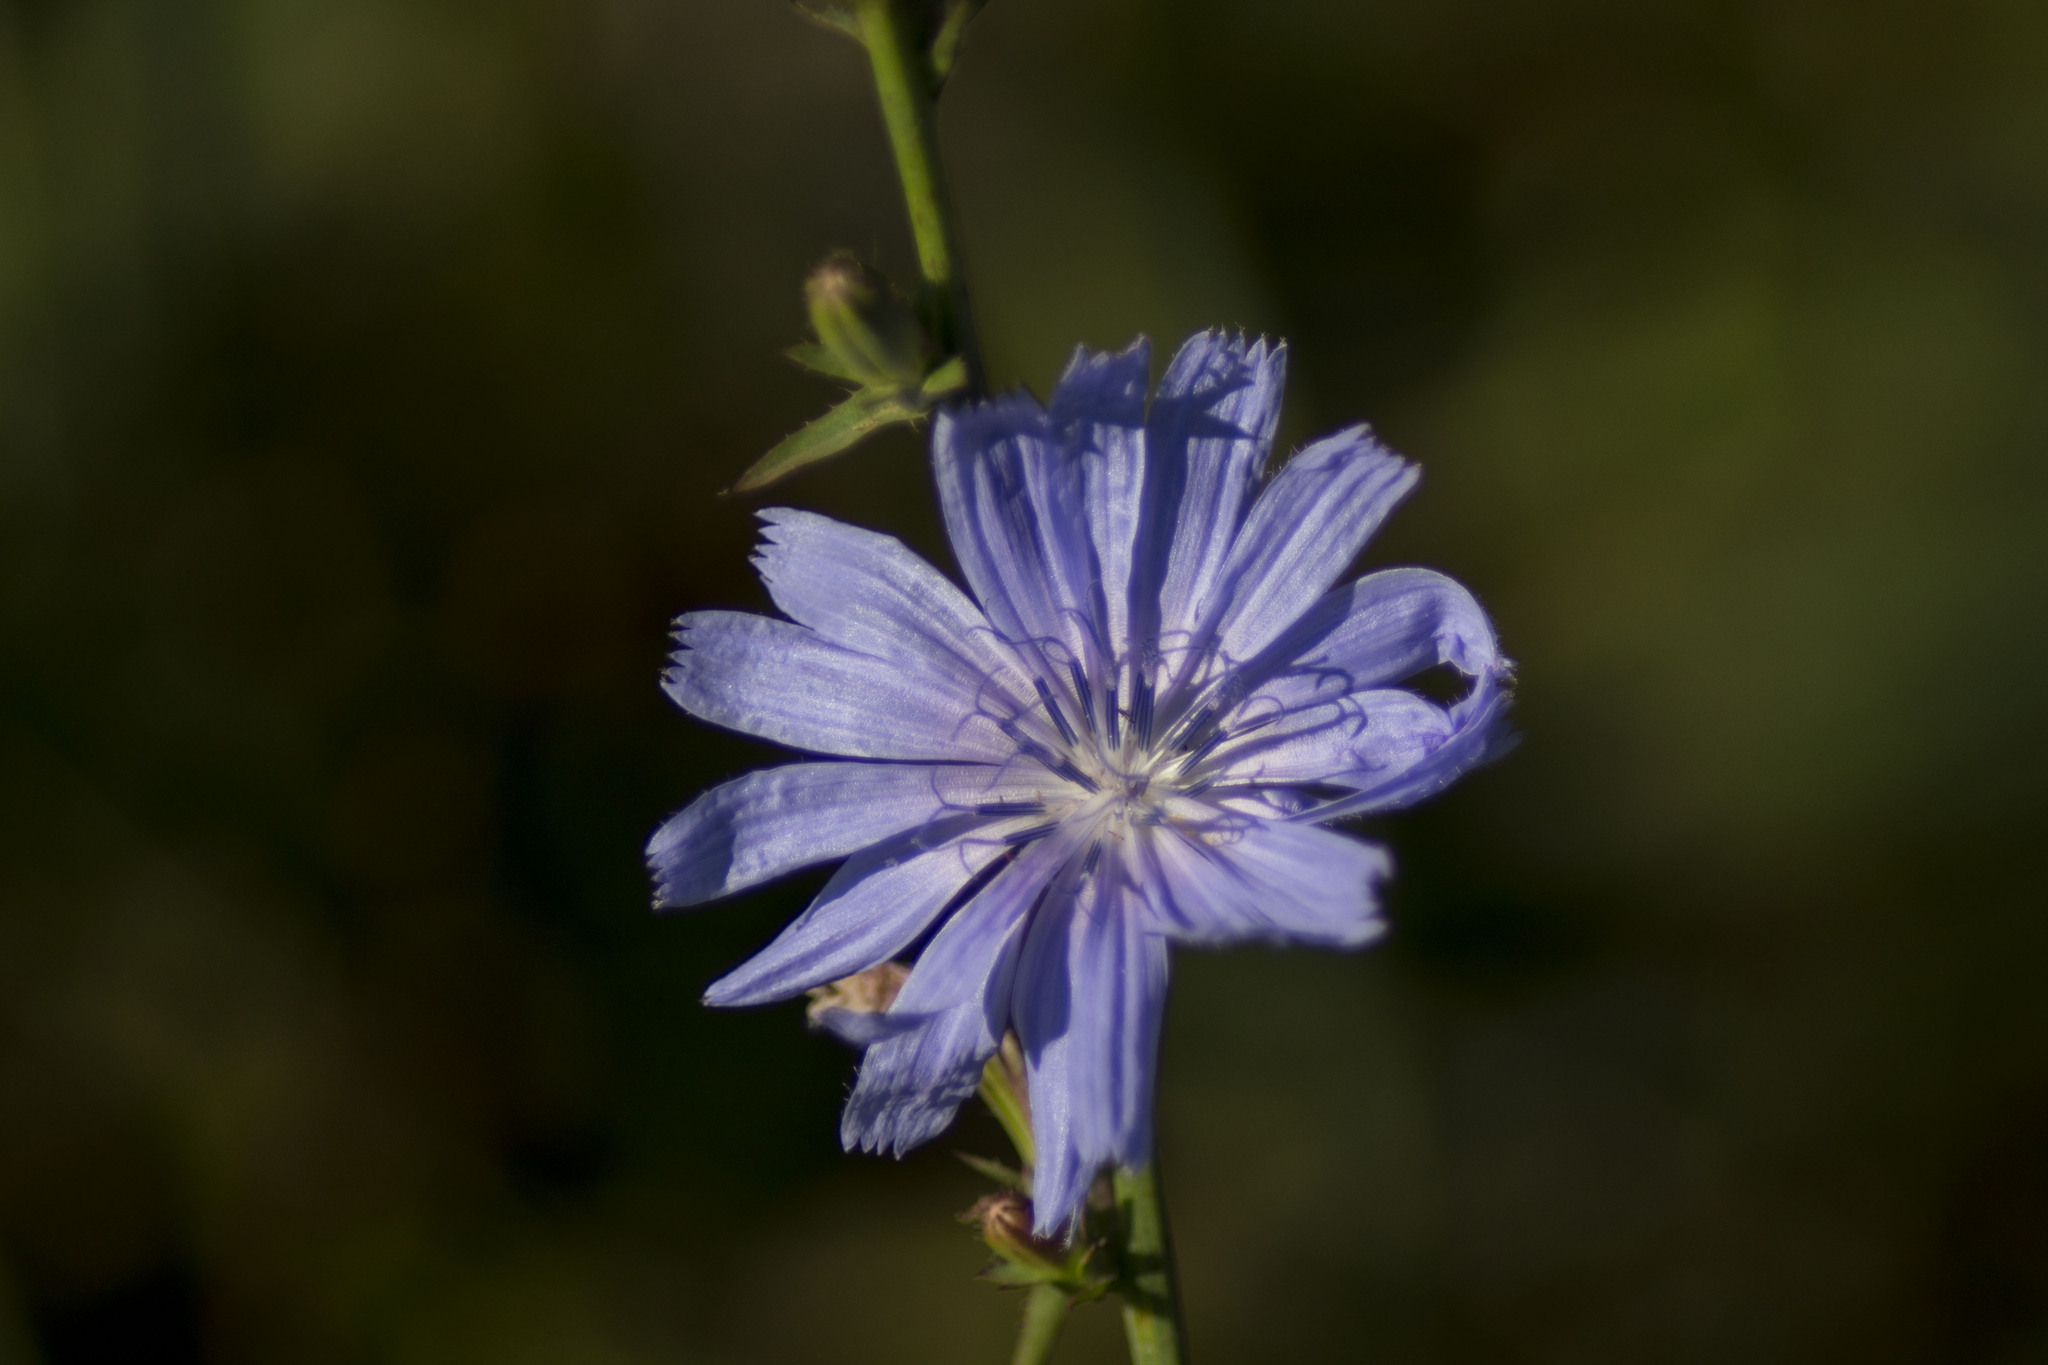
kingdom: Plantae
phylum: Tracheophyta
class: Magnoliopsida
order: Asterales
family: Asteraceae
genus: Cichorium
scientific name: Cichorium intybus
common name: Chicory
